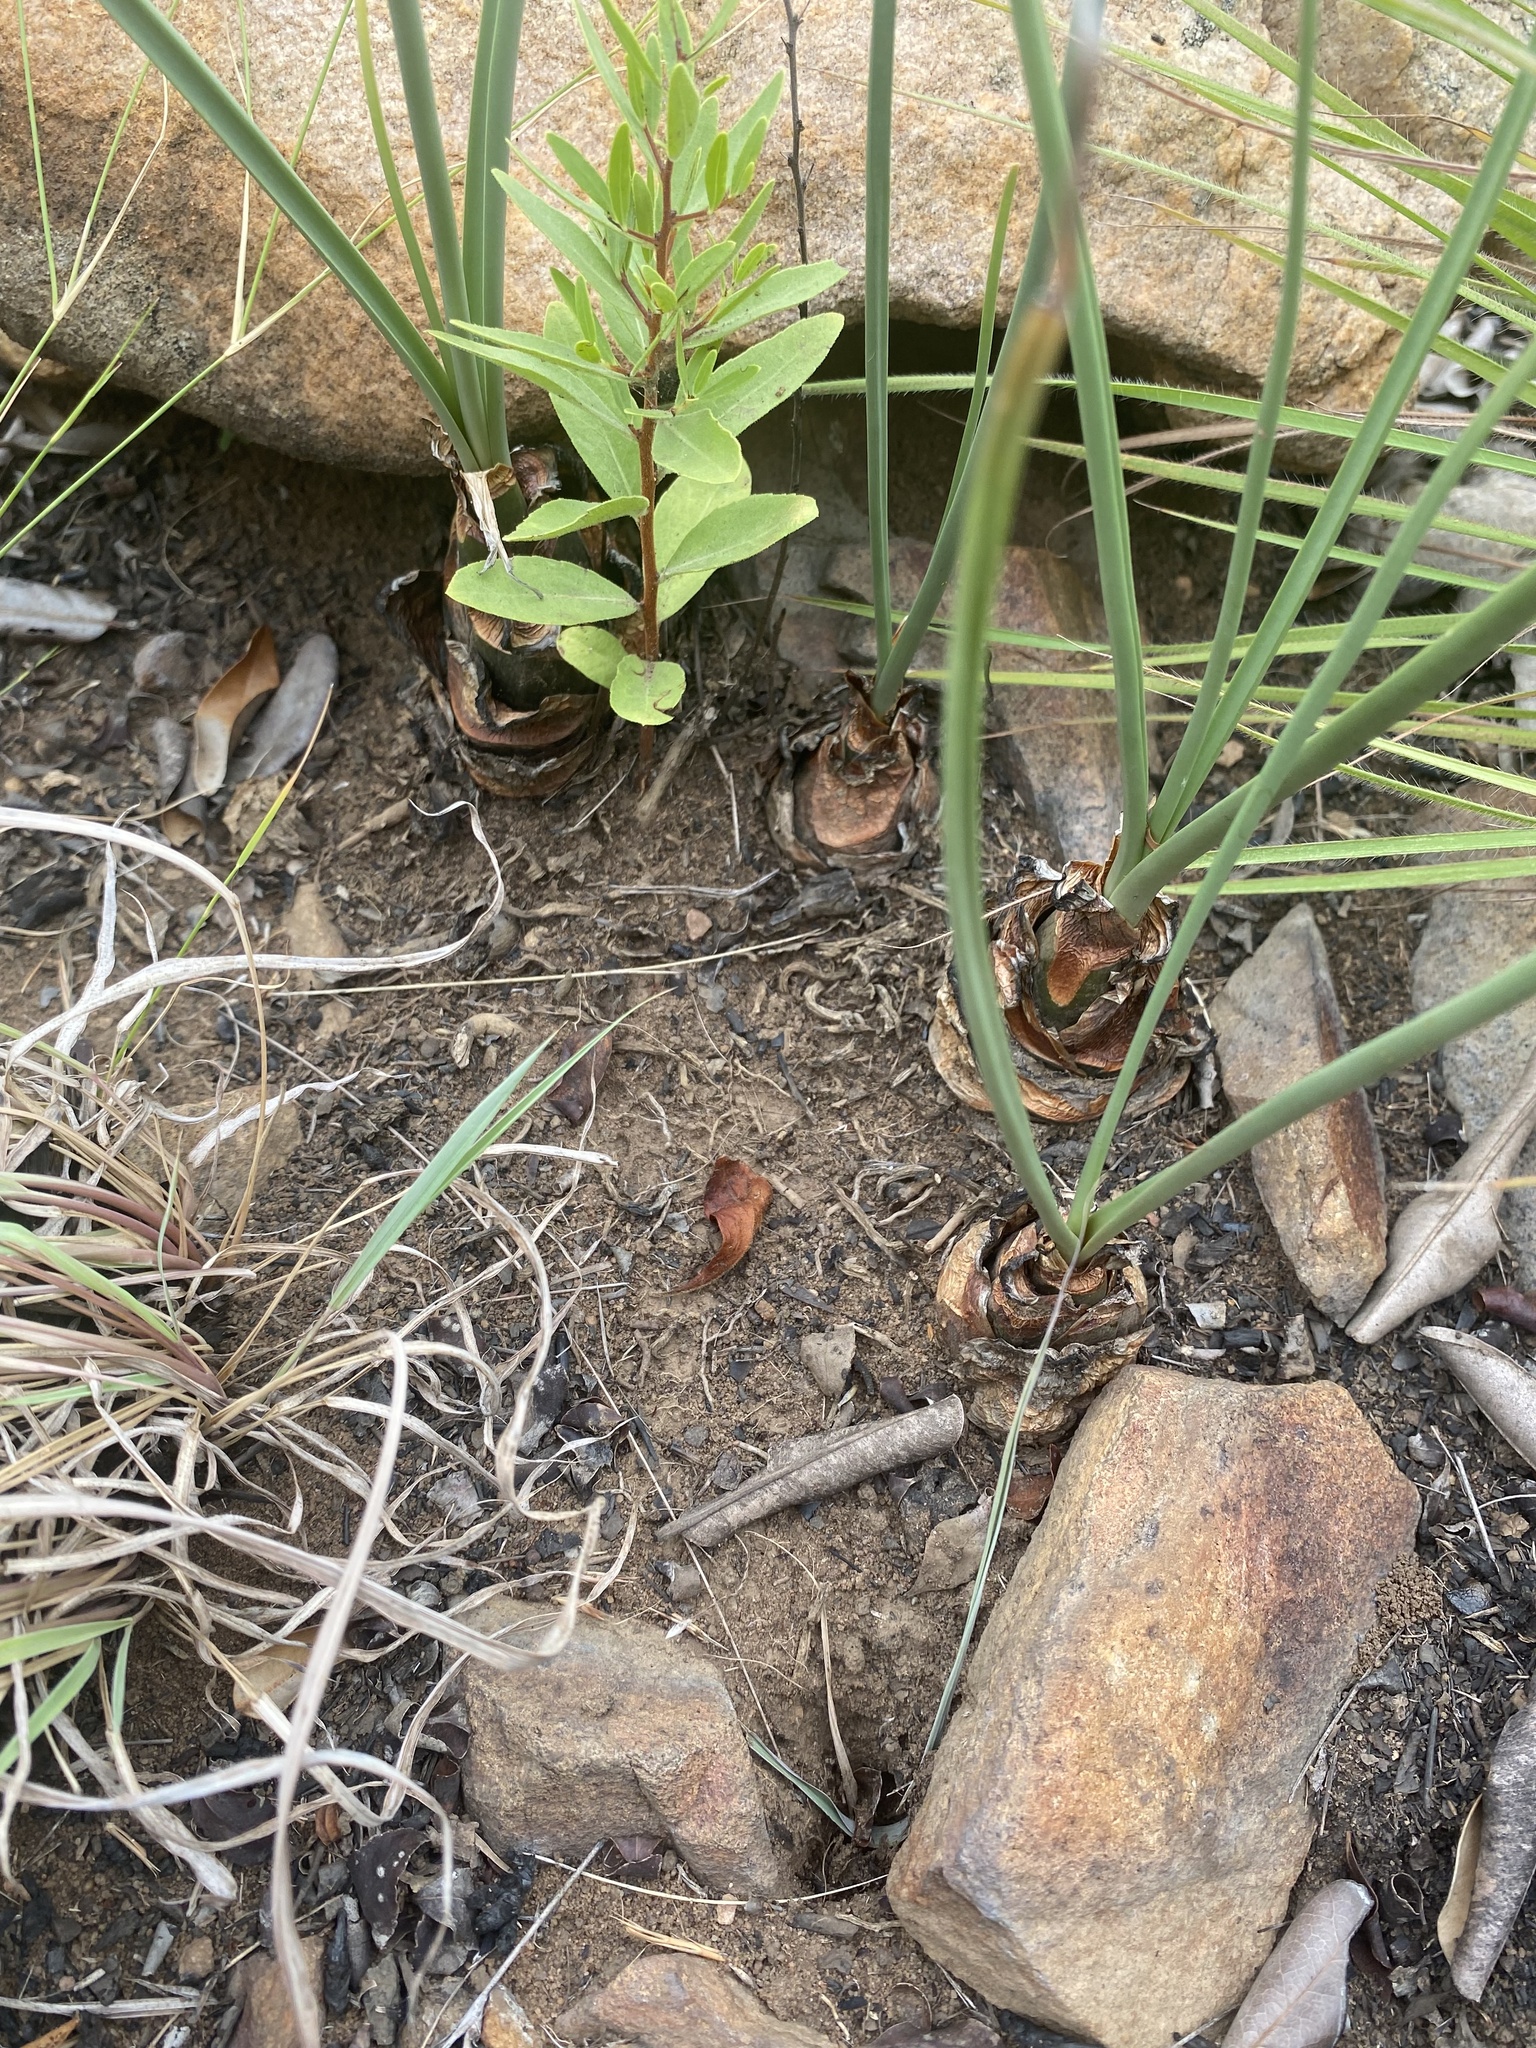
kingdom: Plantae
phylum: Tracheophyta
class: Liliopsida
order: Asparagales
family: Asparagaceae
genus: Drimia
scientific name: Drimia delagoensis
